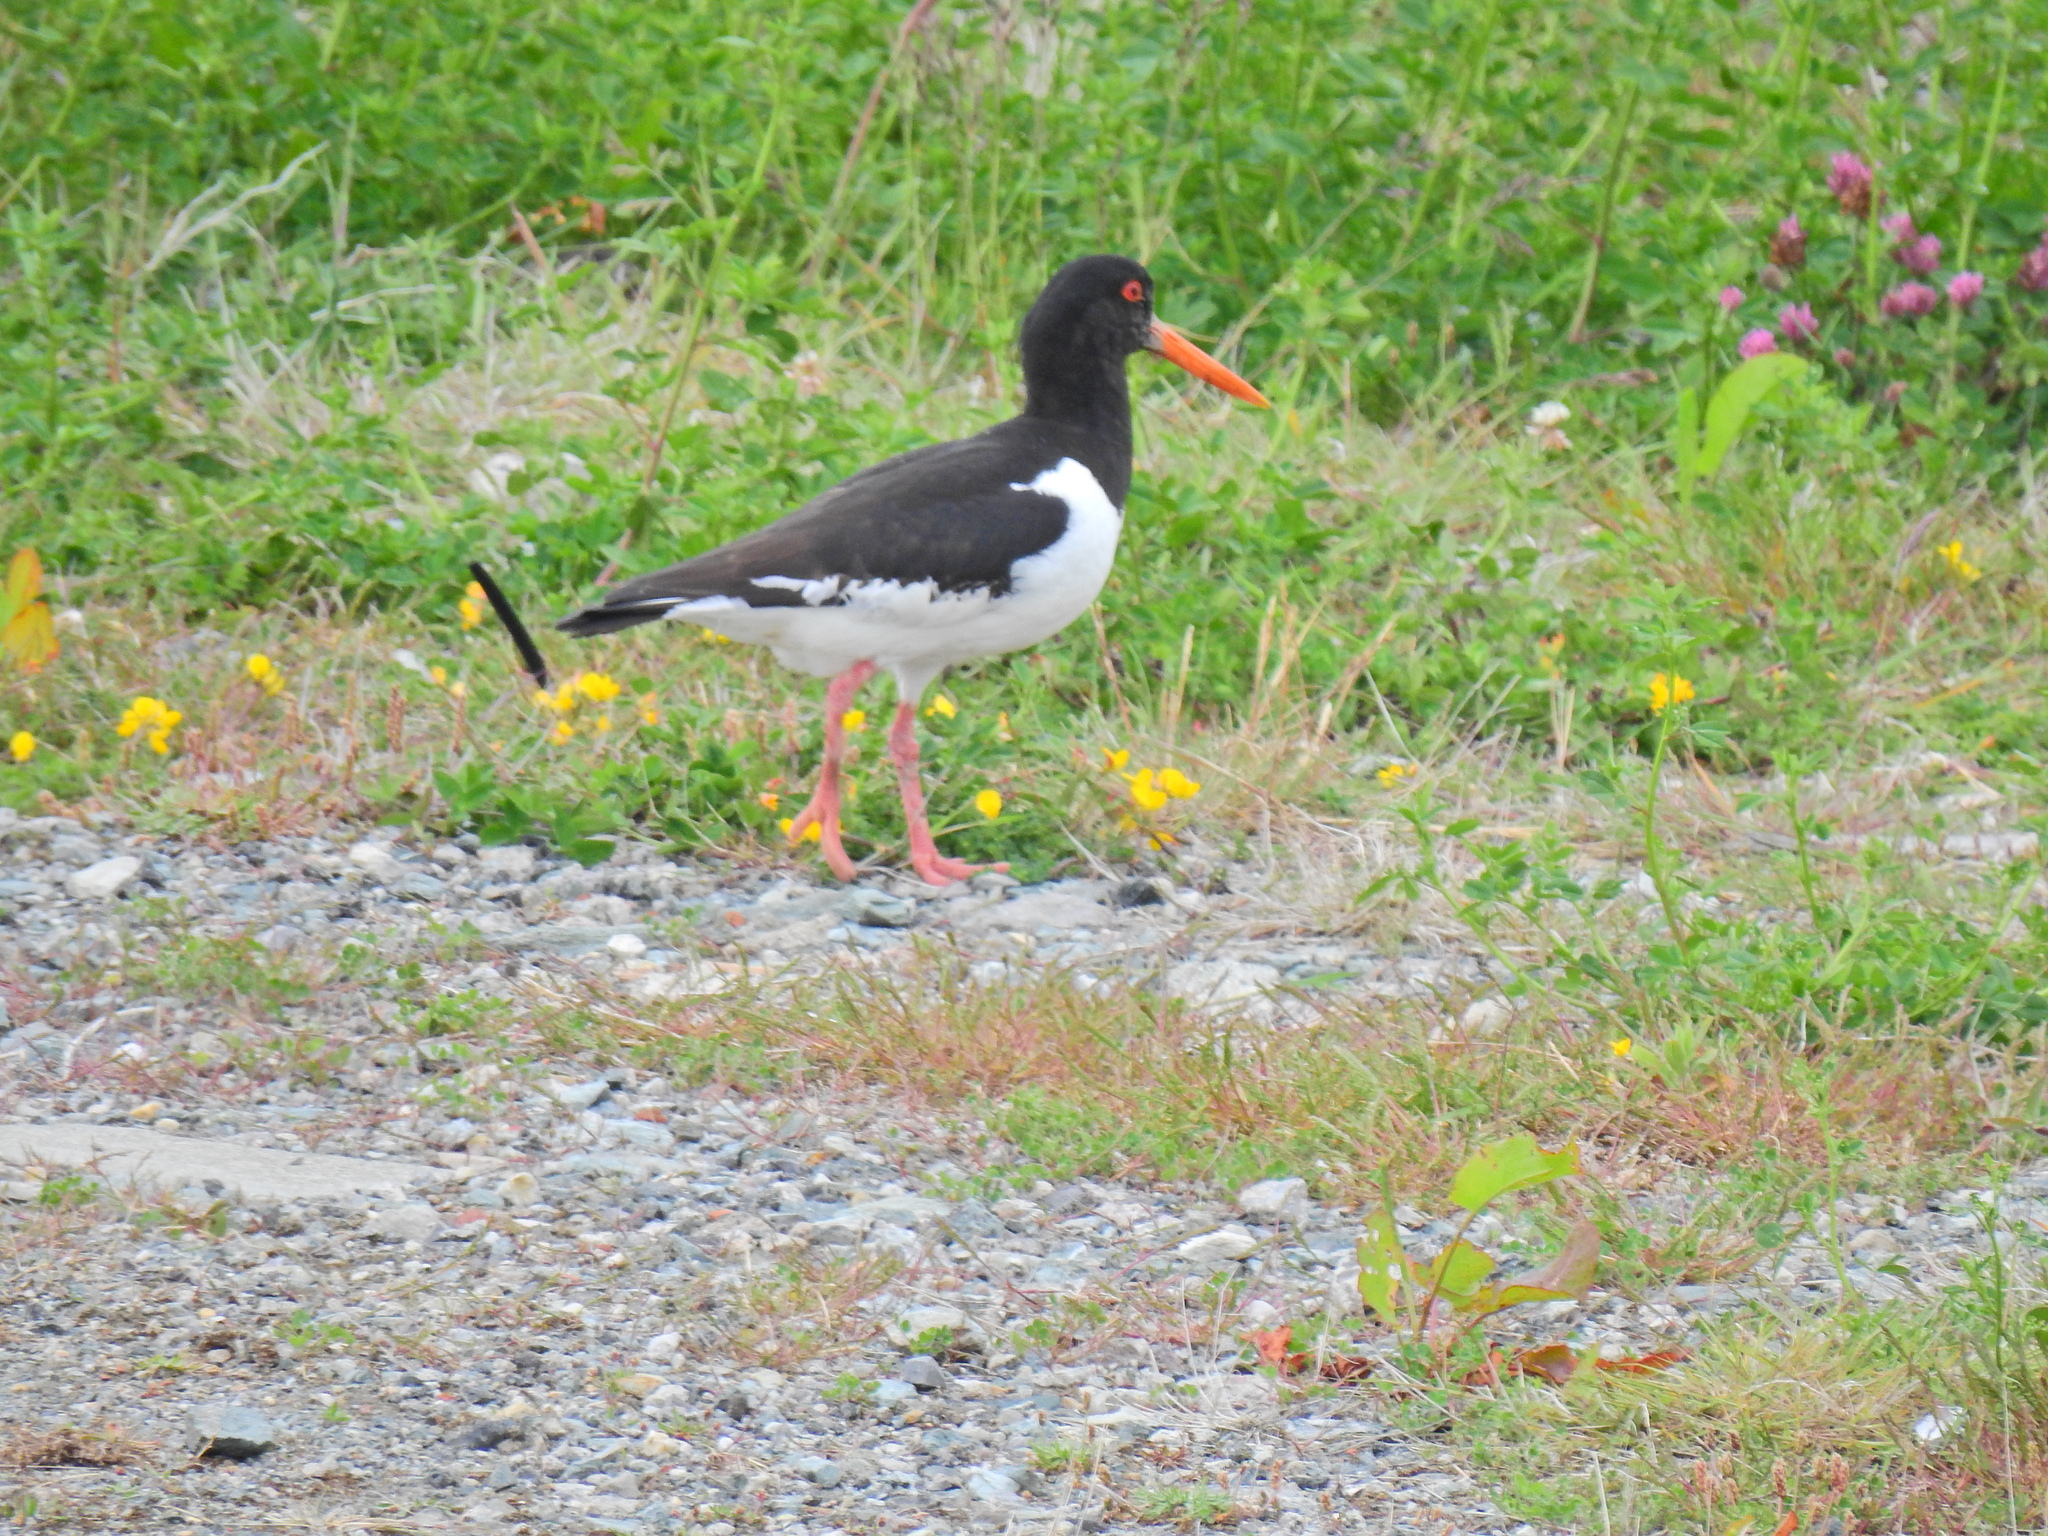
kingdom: Animalia
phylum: Chordata
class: Aves
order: Charadriiformes
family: Haematopodidae
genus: Haematopus
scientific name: Haematopus ostralegus
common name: Eurasian oystercatcher
